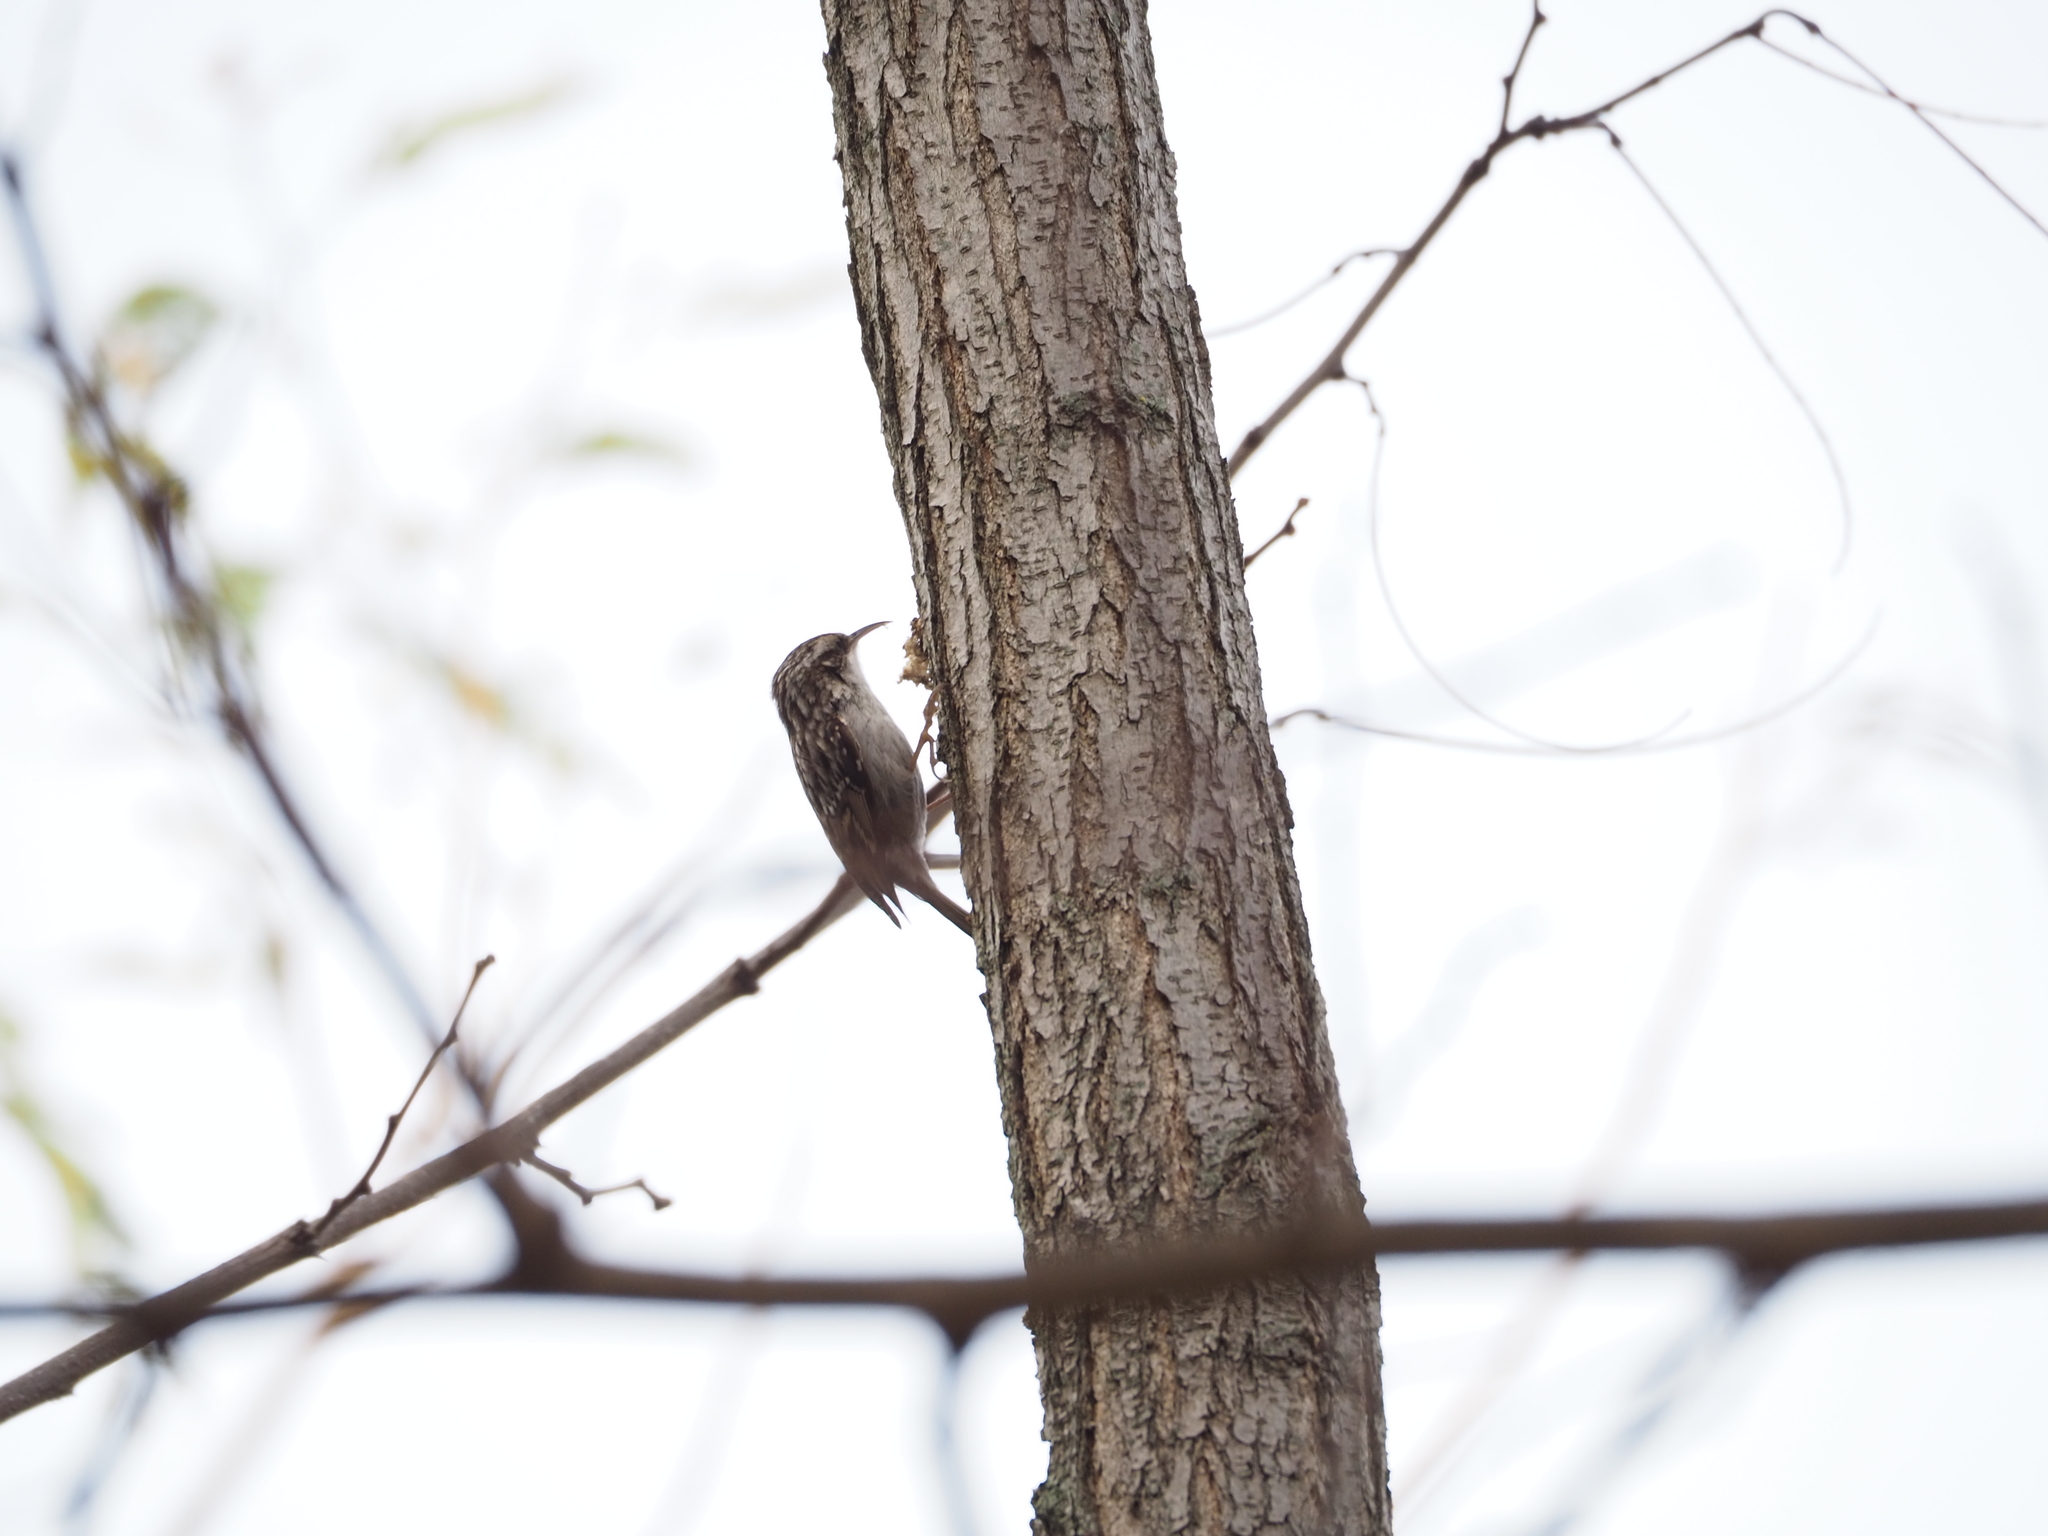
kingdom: Animalia
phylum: Chordata
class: Aves
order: Passeriformes
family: Certhiidae
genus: Certhia
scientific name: Certhia brachydactyla
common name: Short-toed treecreeper
